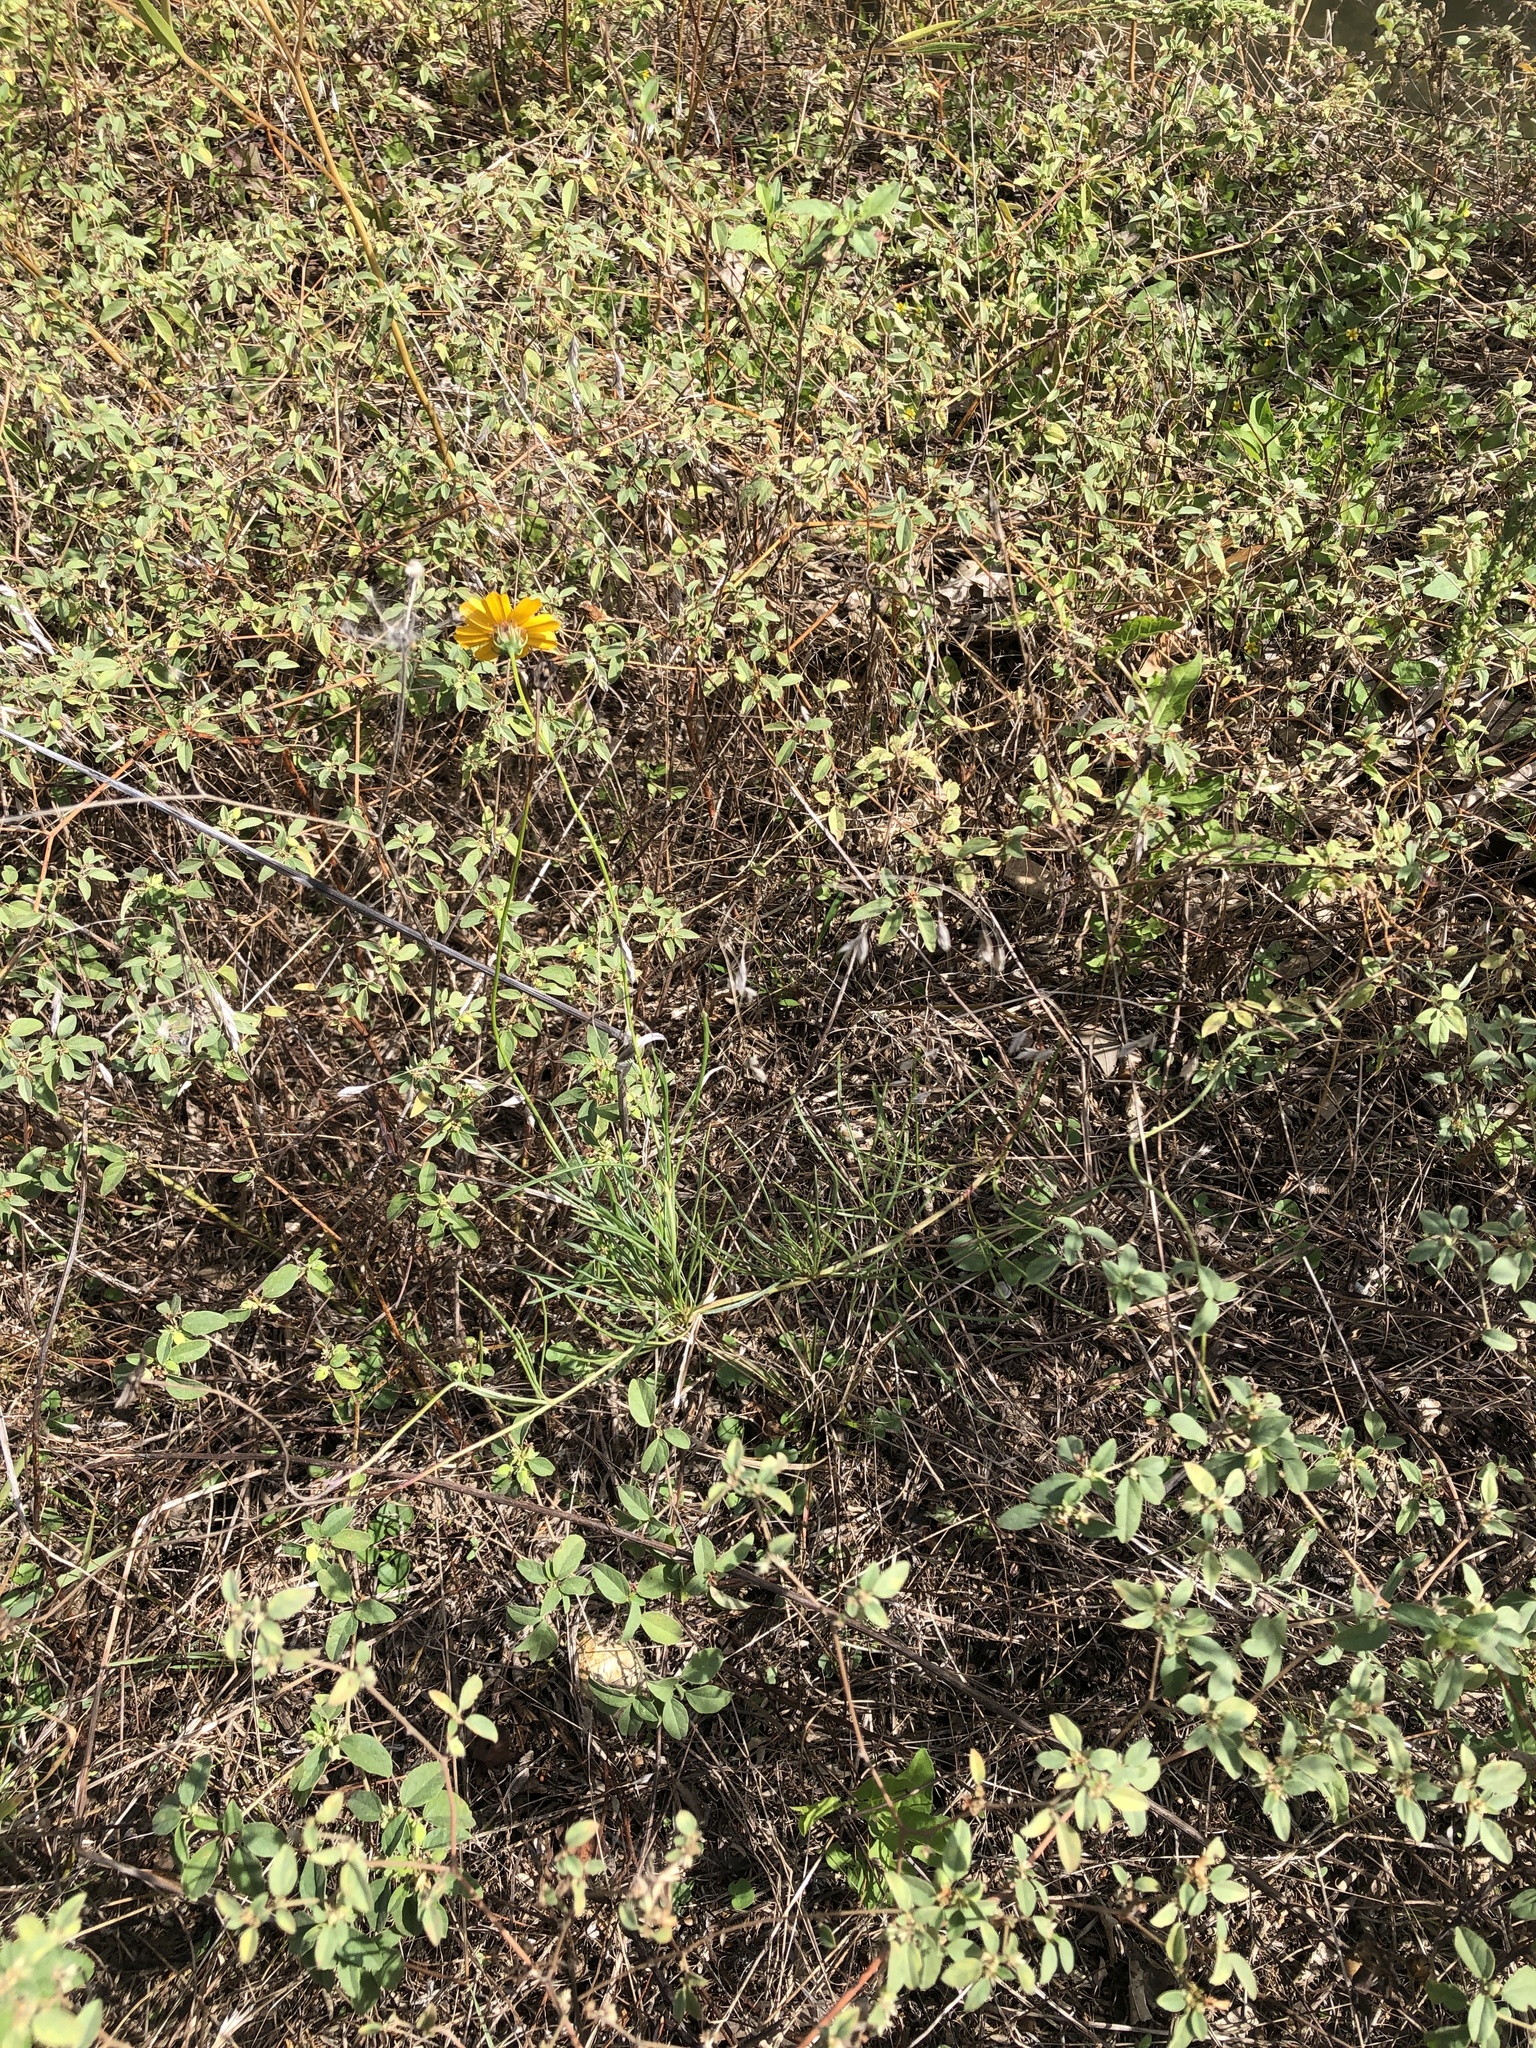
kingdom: Plantae
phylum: Tracheophyta
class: Magnoliopsida
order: Asterales
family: Asteraceae
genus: Thelesperma
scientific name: Thelesperma filifolium
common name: Stiff greenthread
